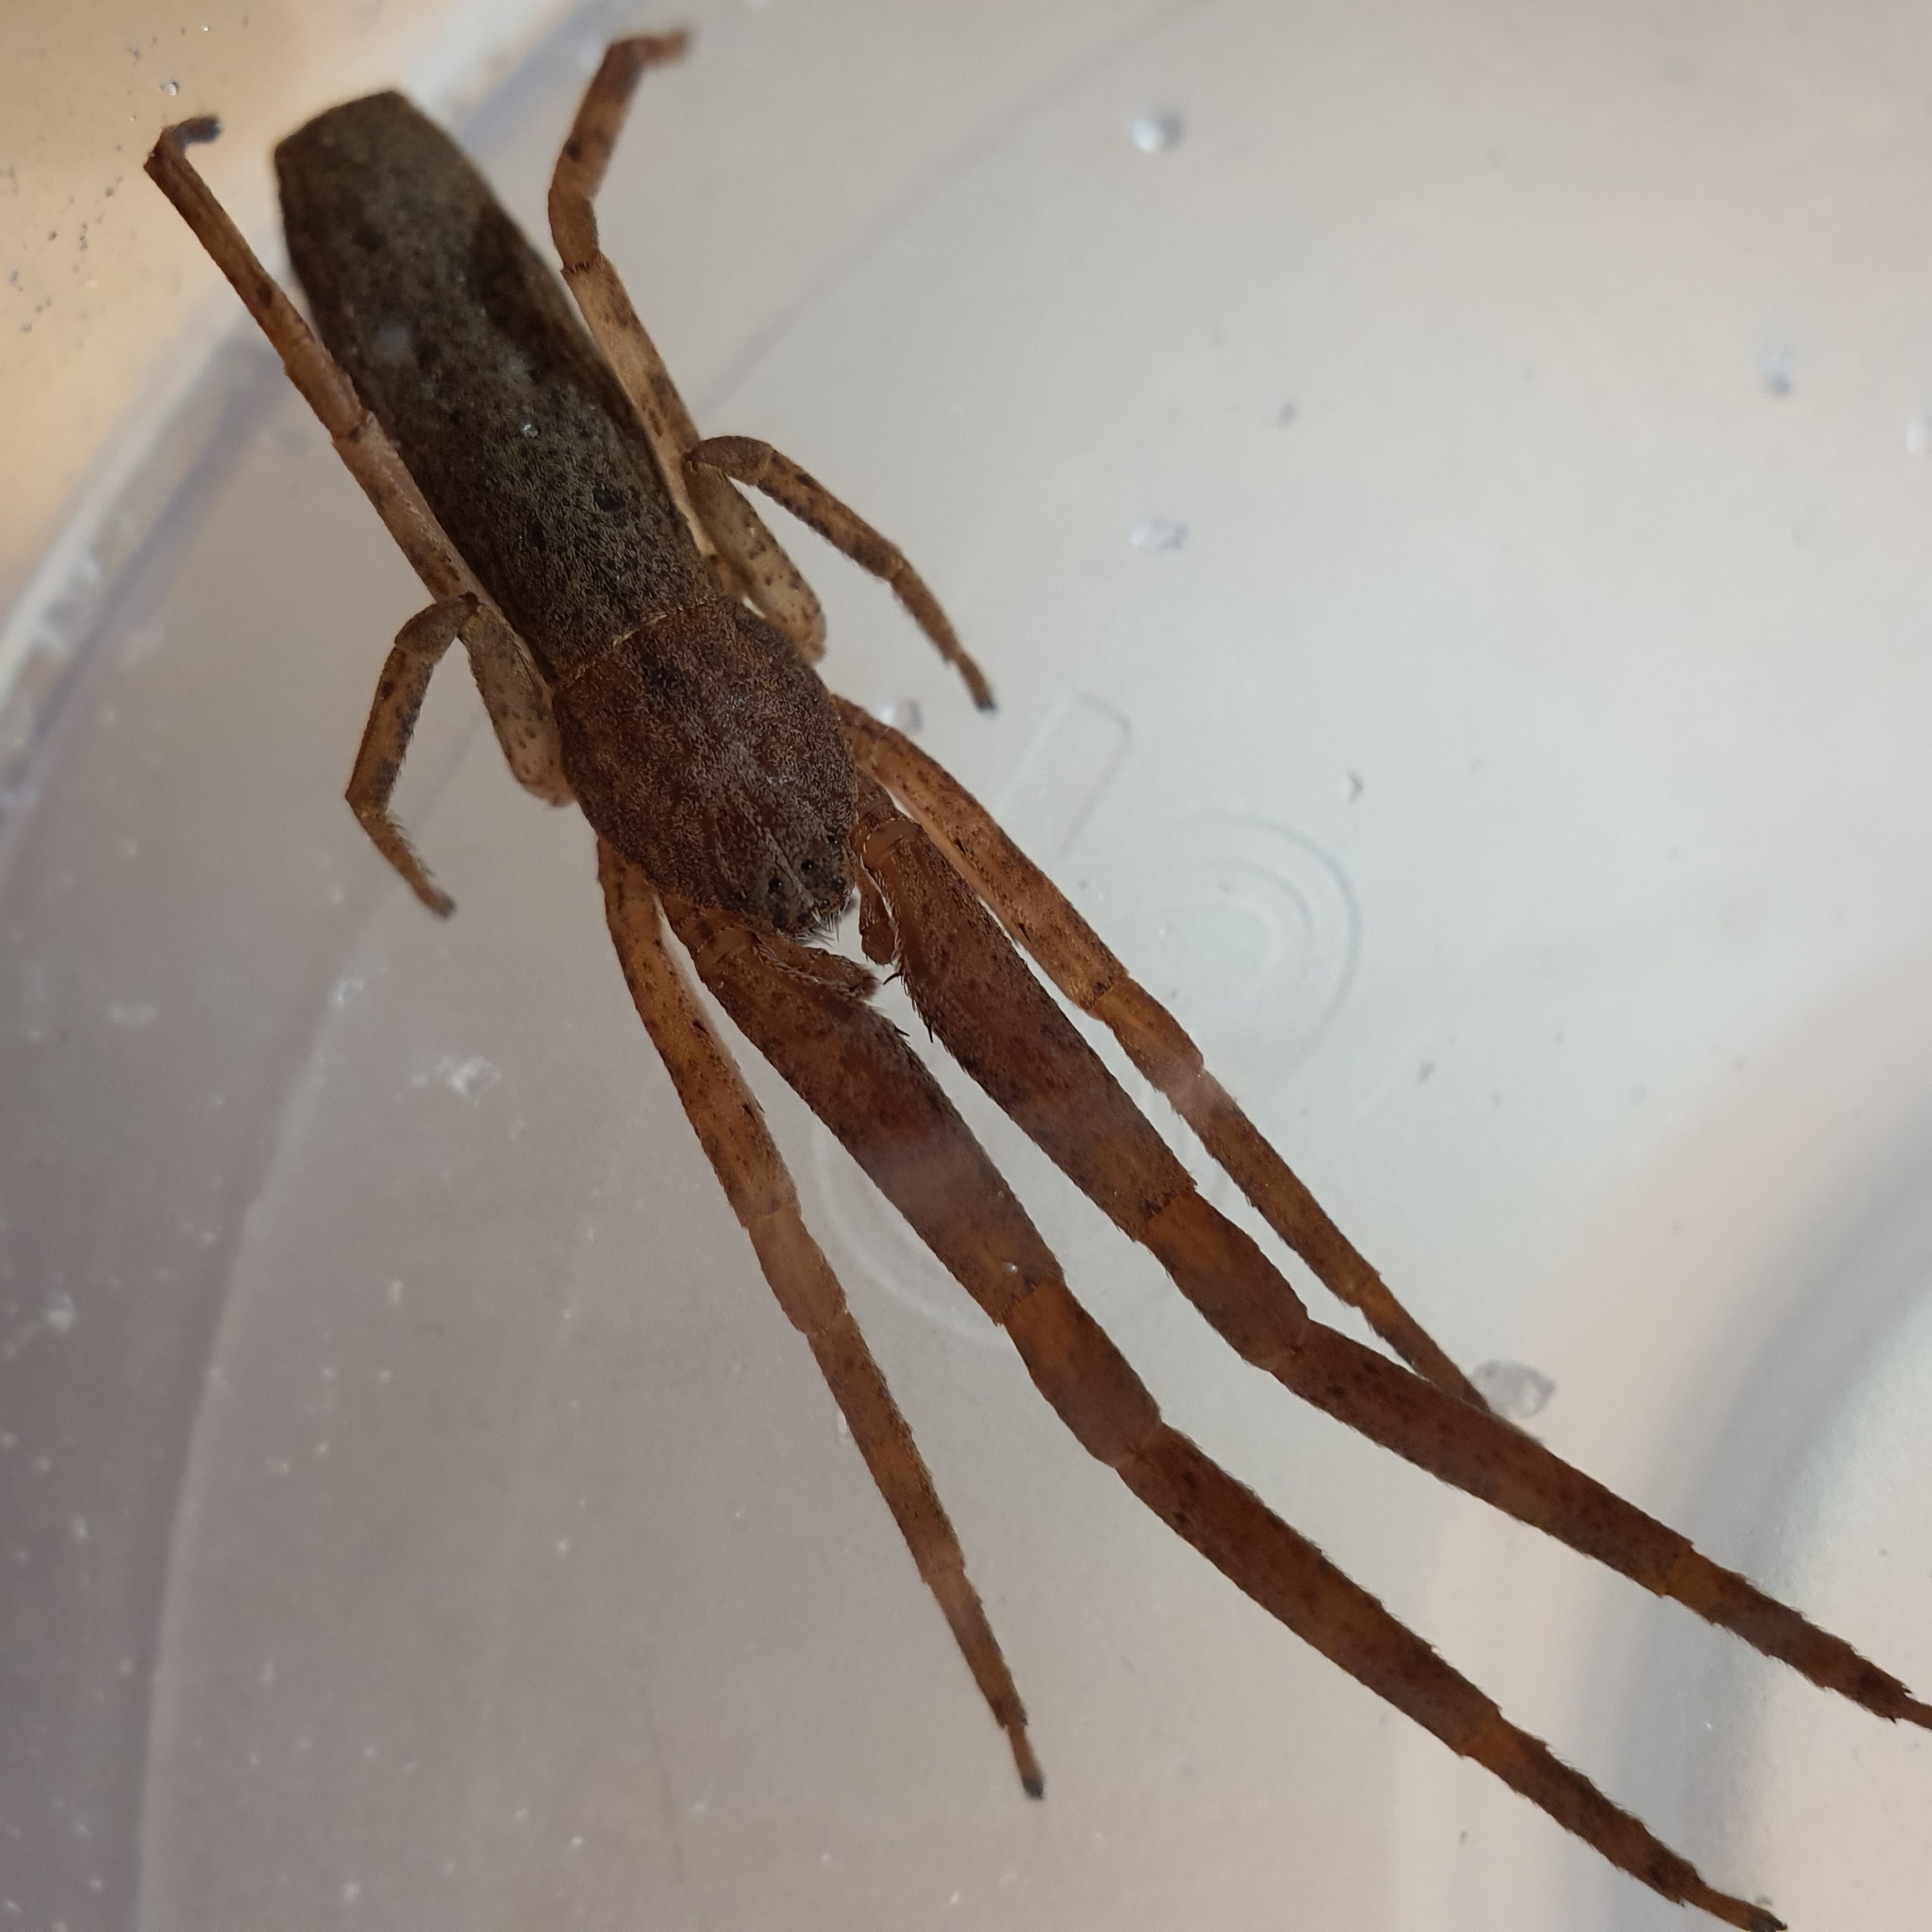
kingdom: Animalia
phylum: Arthropoda
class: Arachnida
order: Araneae
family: Thomisidae
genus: Synalus
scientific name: Synalus angustus
